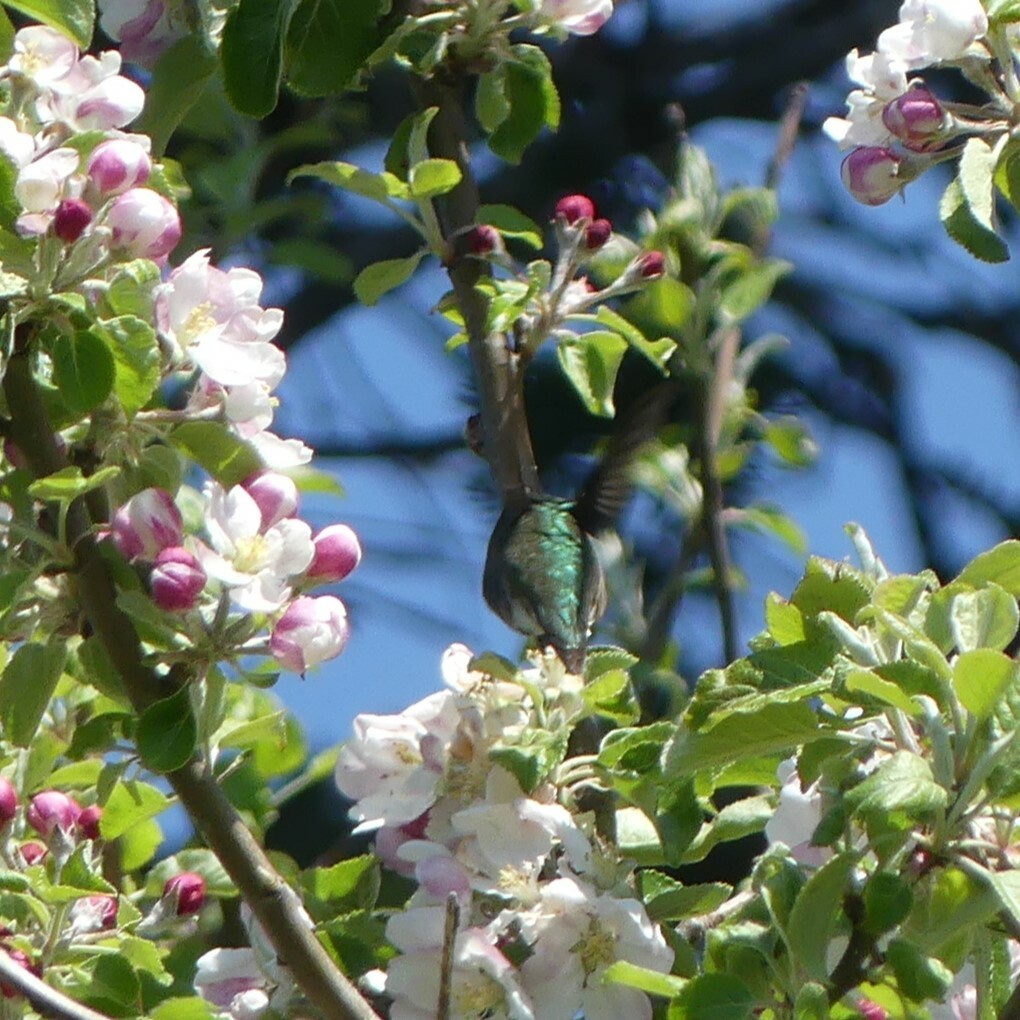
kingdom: Animalia
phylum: Chordata
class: Aves
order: Apodiformes
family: Trochilidae
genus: Archilochus
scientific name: Archilochus colubris
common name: Ruby-throated hummingbird
